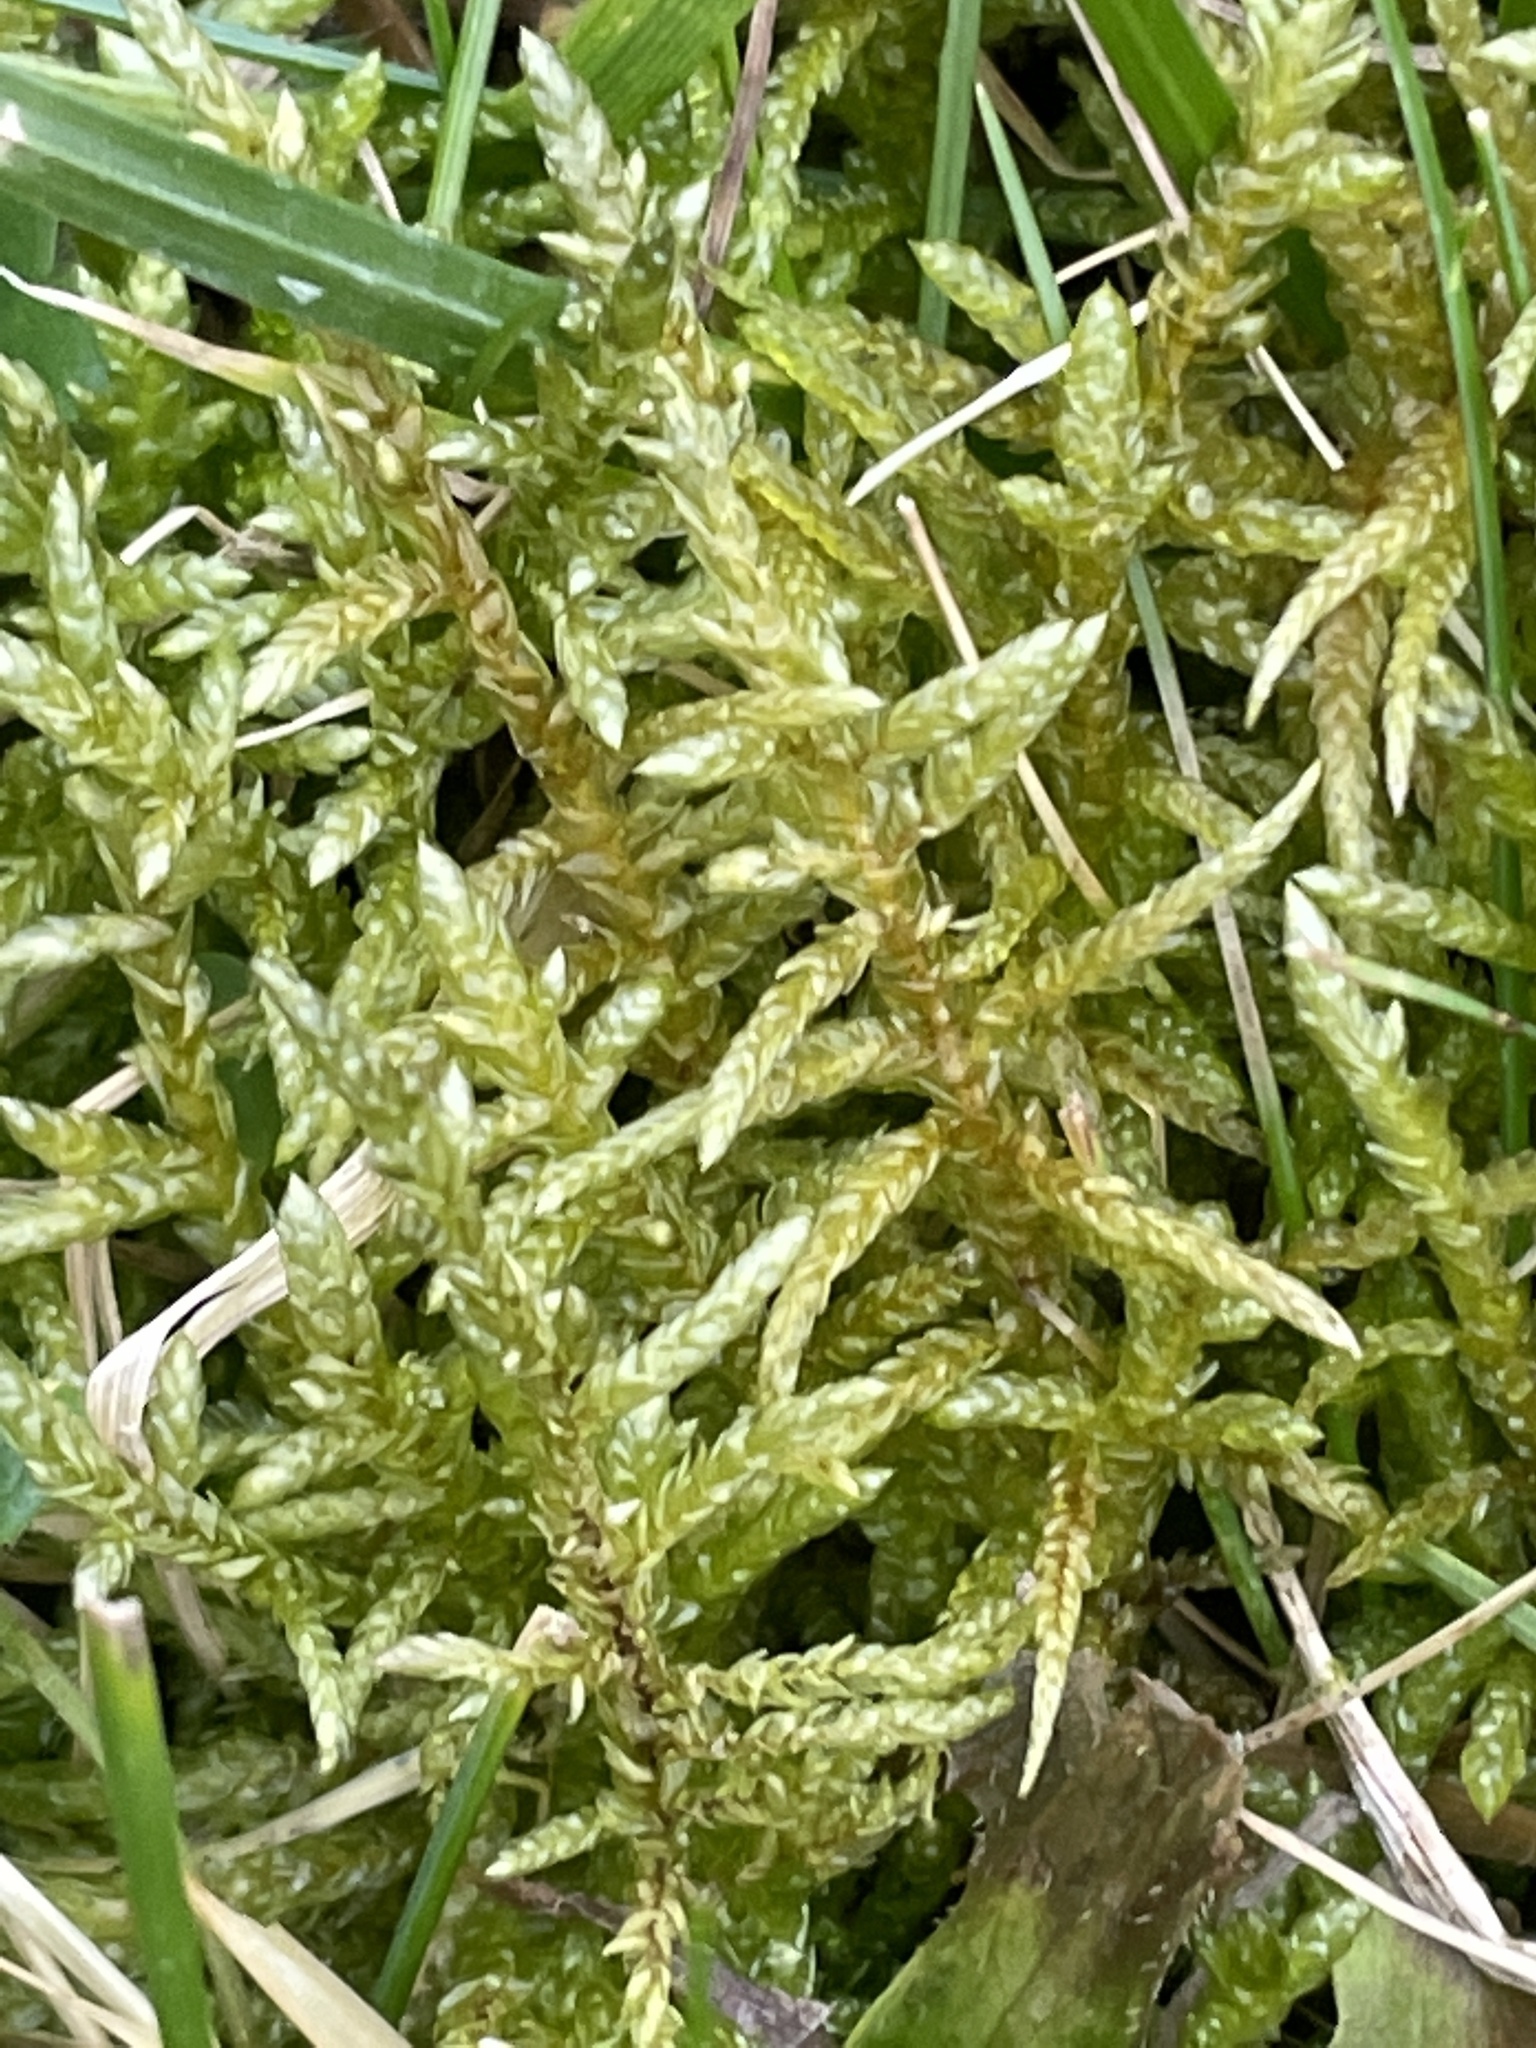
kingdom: Plantae
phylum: Bryophyta
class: Bryopsida
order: Hypnales
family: Brachytheciaceae
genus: Pseudoscleropodium
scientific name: Pseudoscleropodium purum
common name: Neat feather-moss
